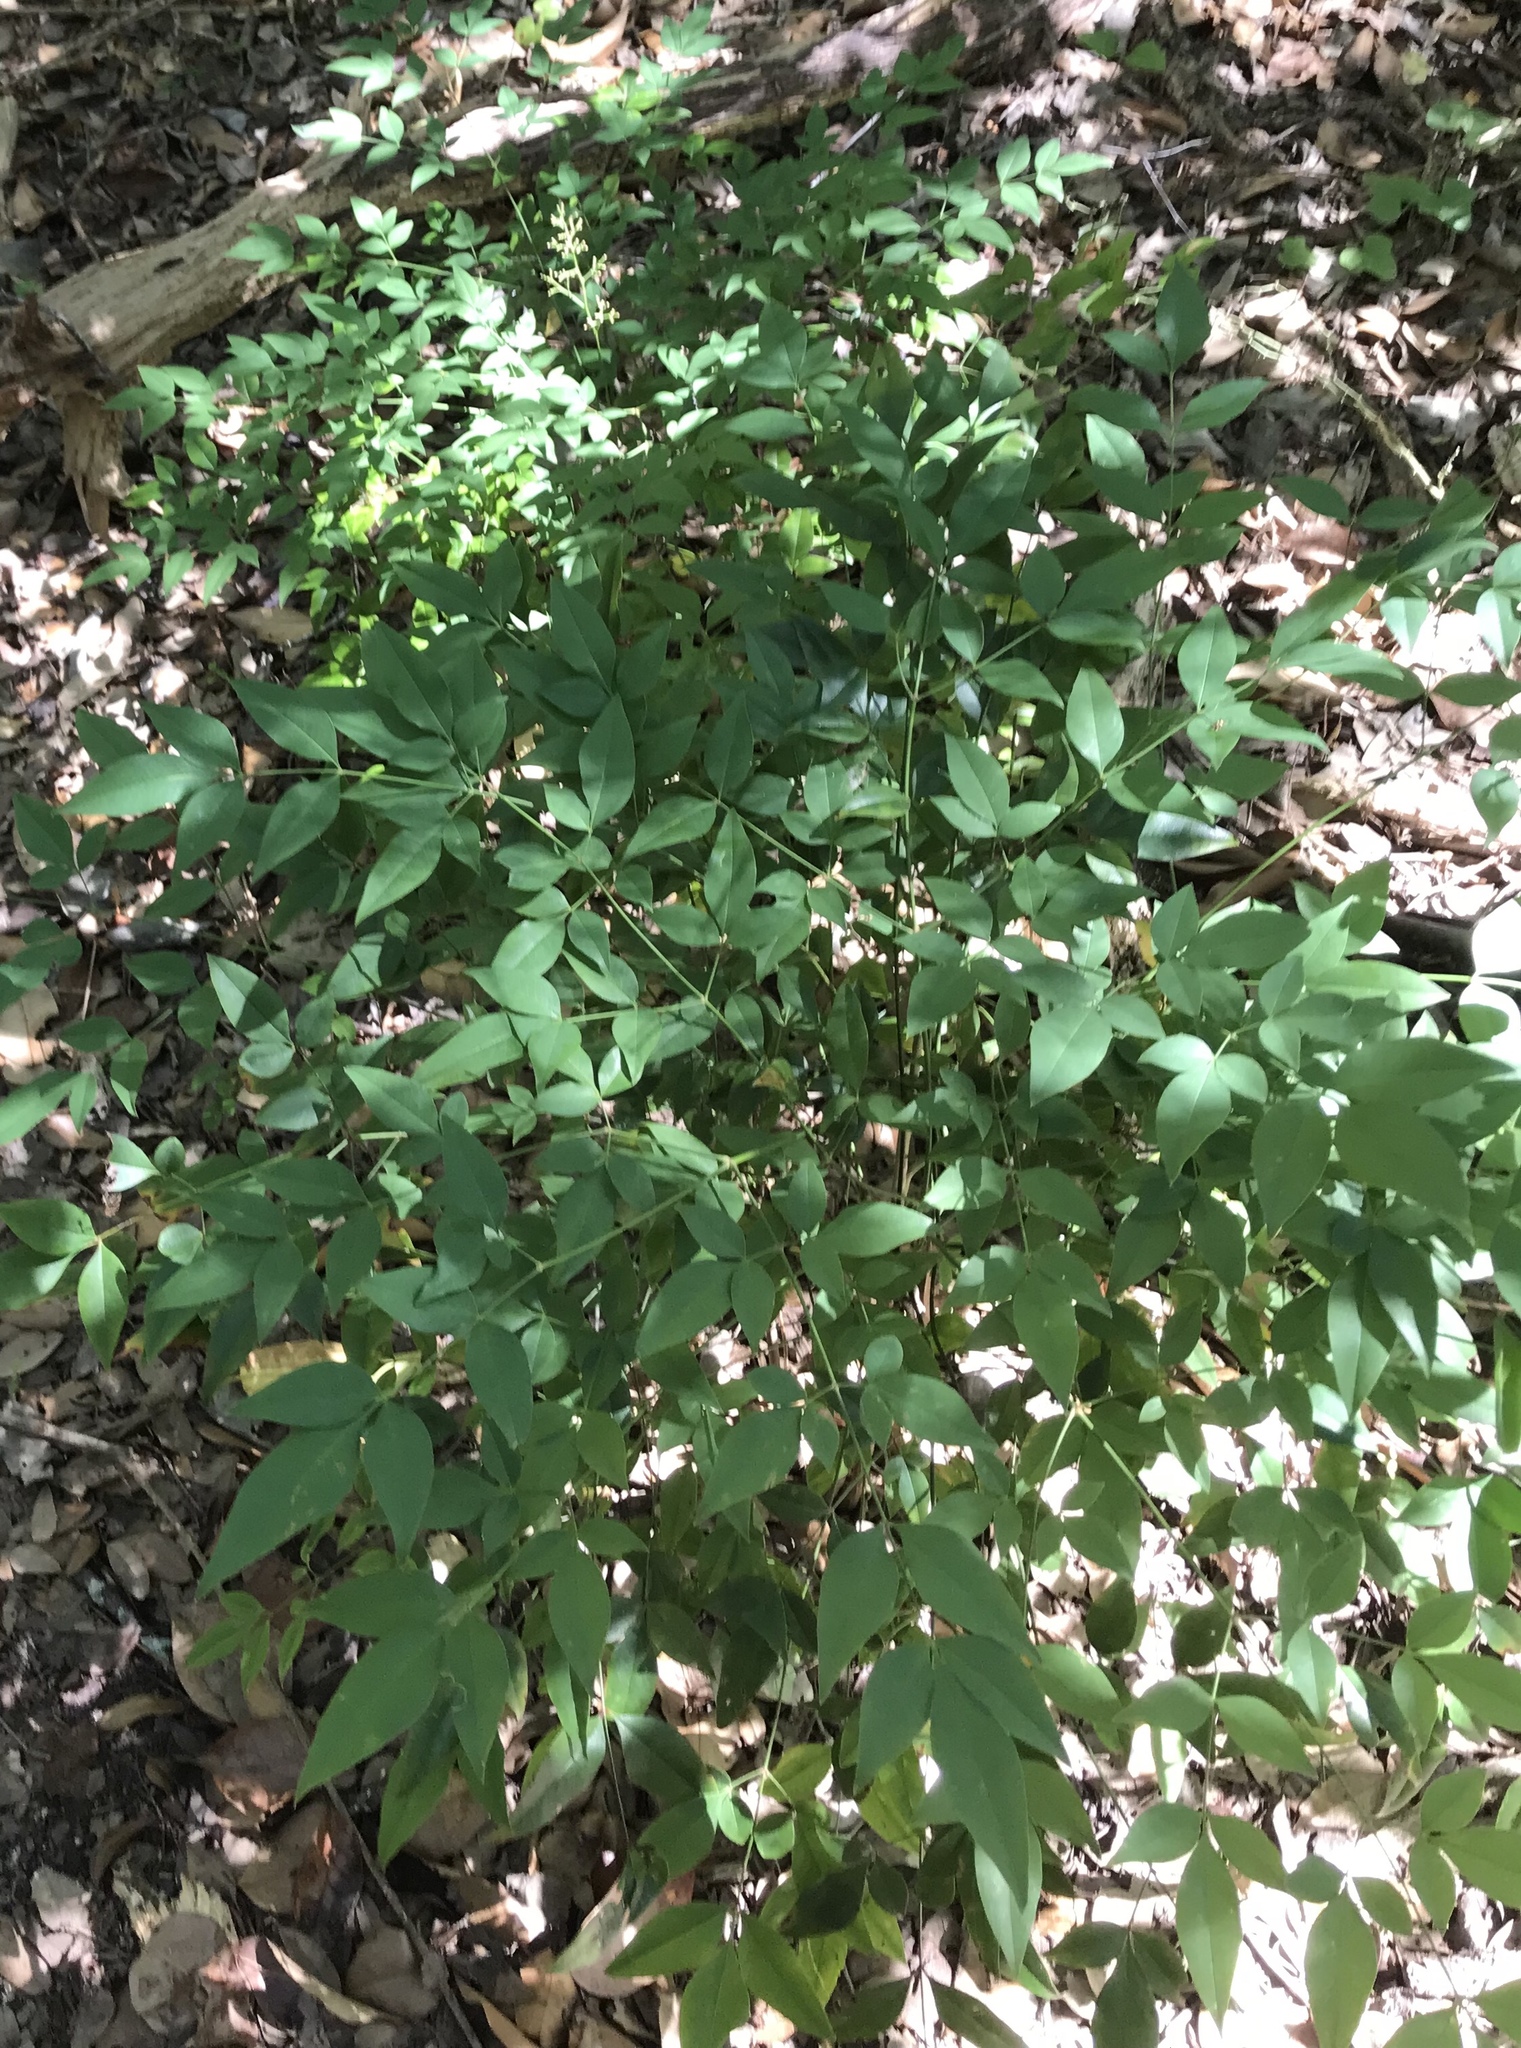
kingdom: Plantae
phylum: Tracheophyta
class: Magnoliopsida
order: Ranunculales
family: Berberidaceae
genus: Nandina
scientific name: Nandina domestica
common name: Sacred bamboo
